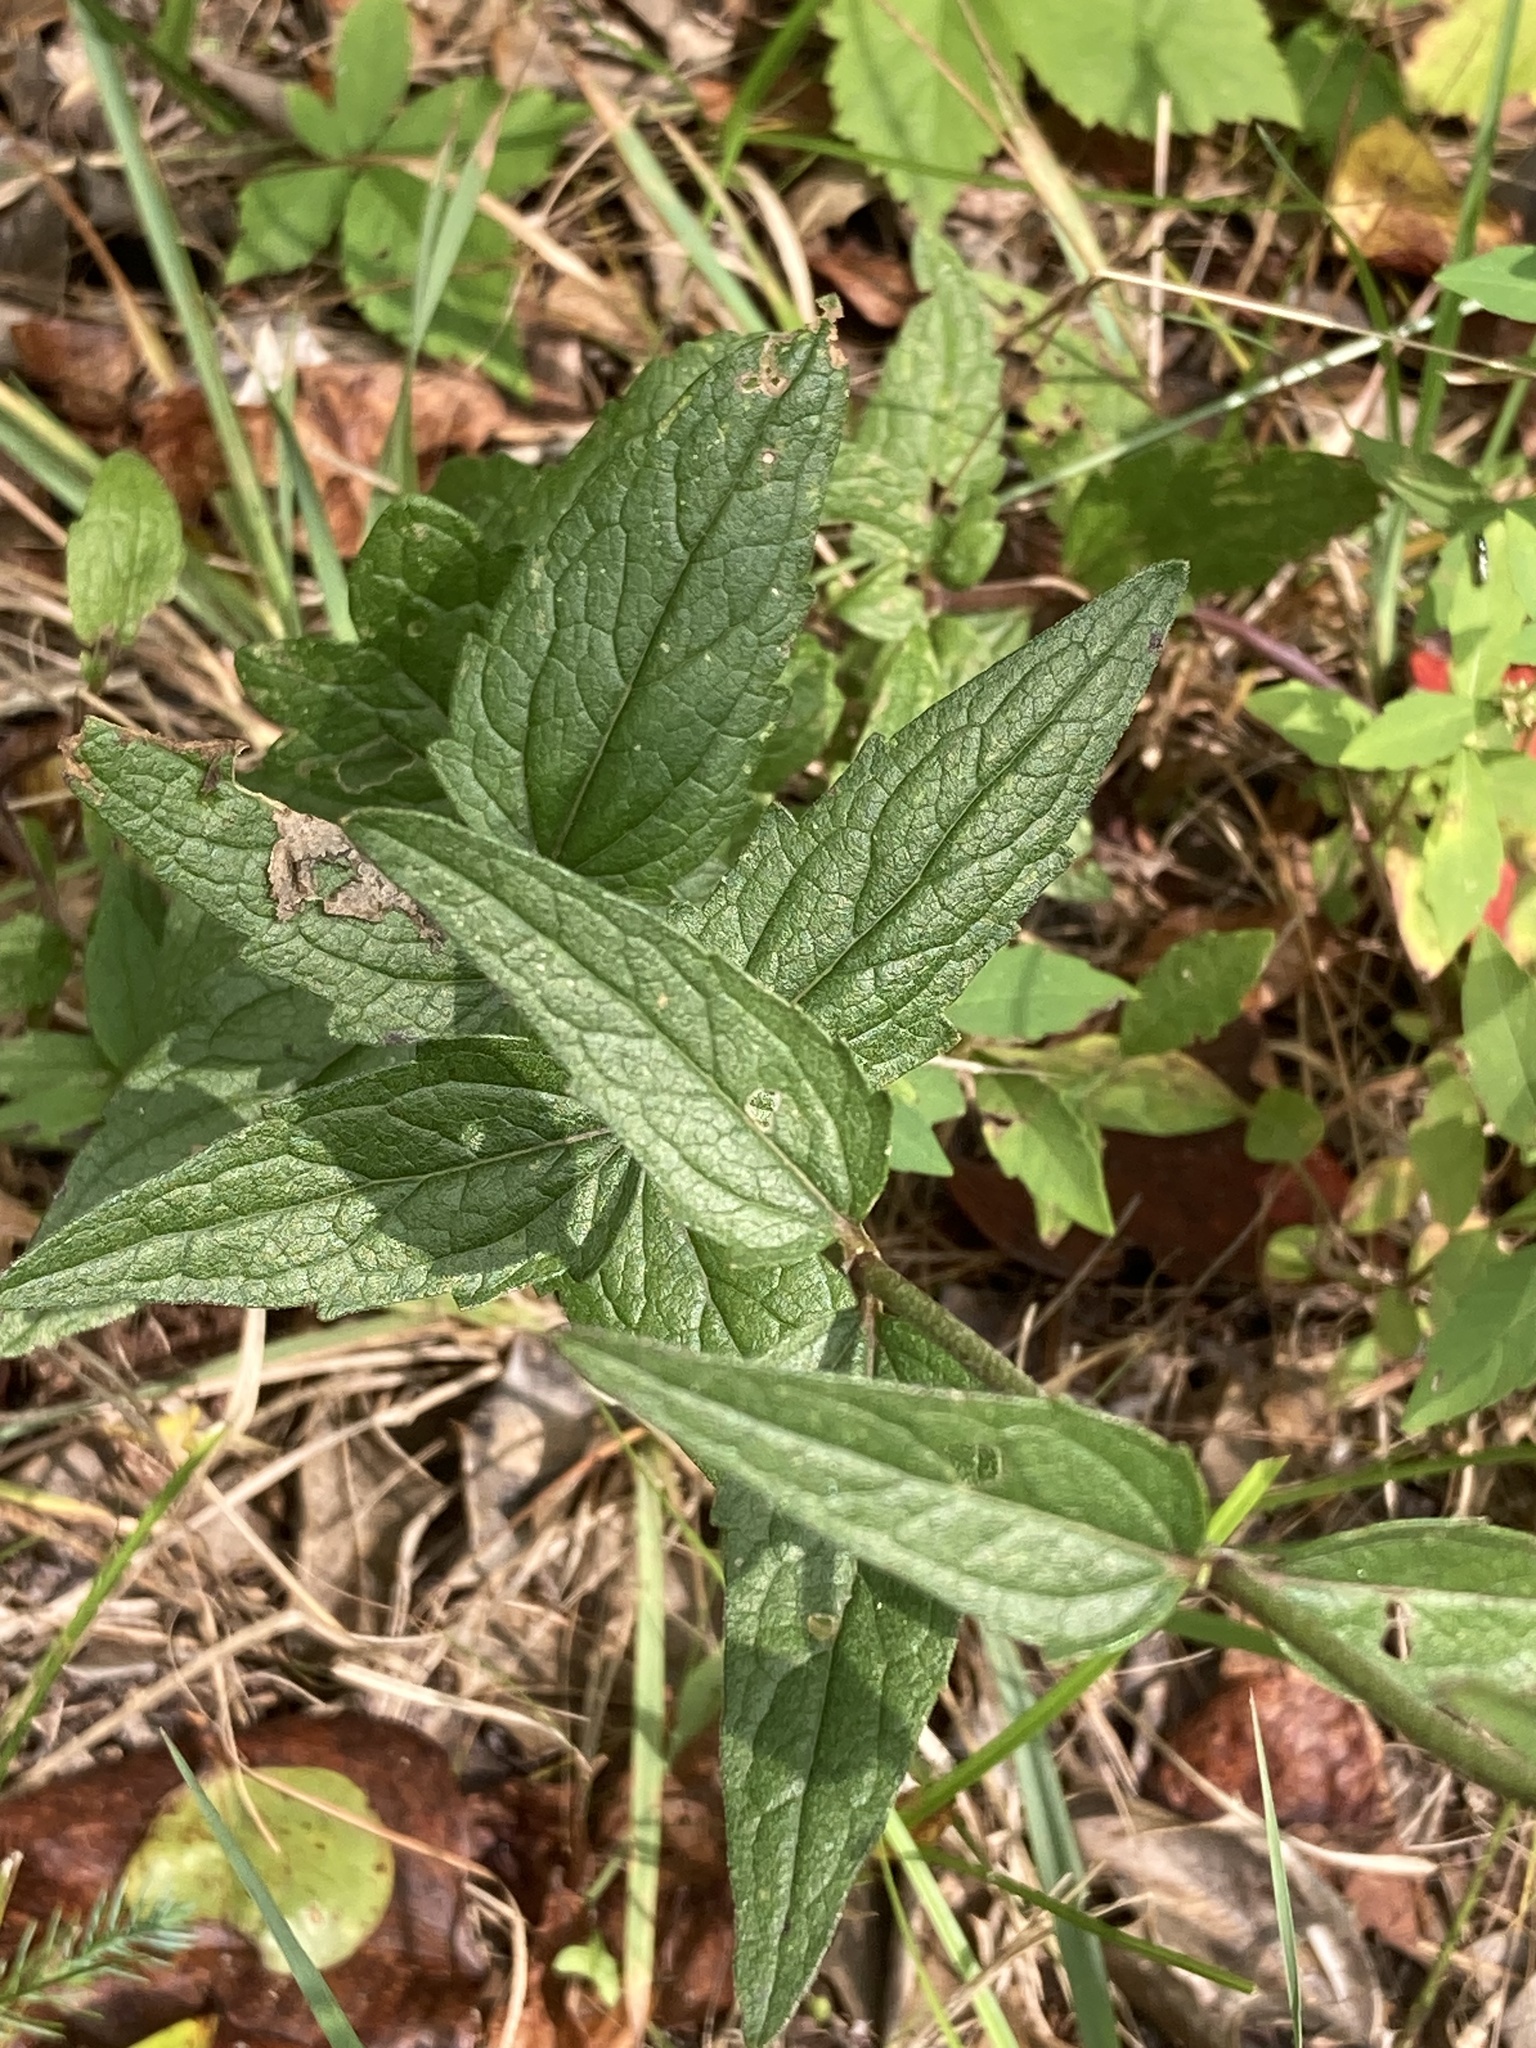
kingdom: Plantae
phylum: Tracheophyta
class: Magnoliopsida
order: Asterales
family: Asteraceae
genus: Eupatorium
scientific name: Eupatorium pilosum
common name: Rough boneset
